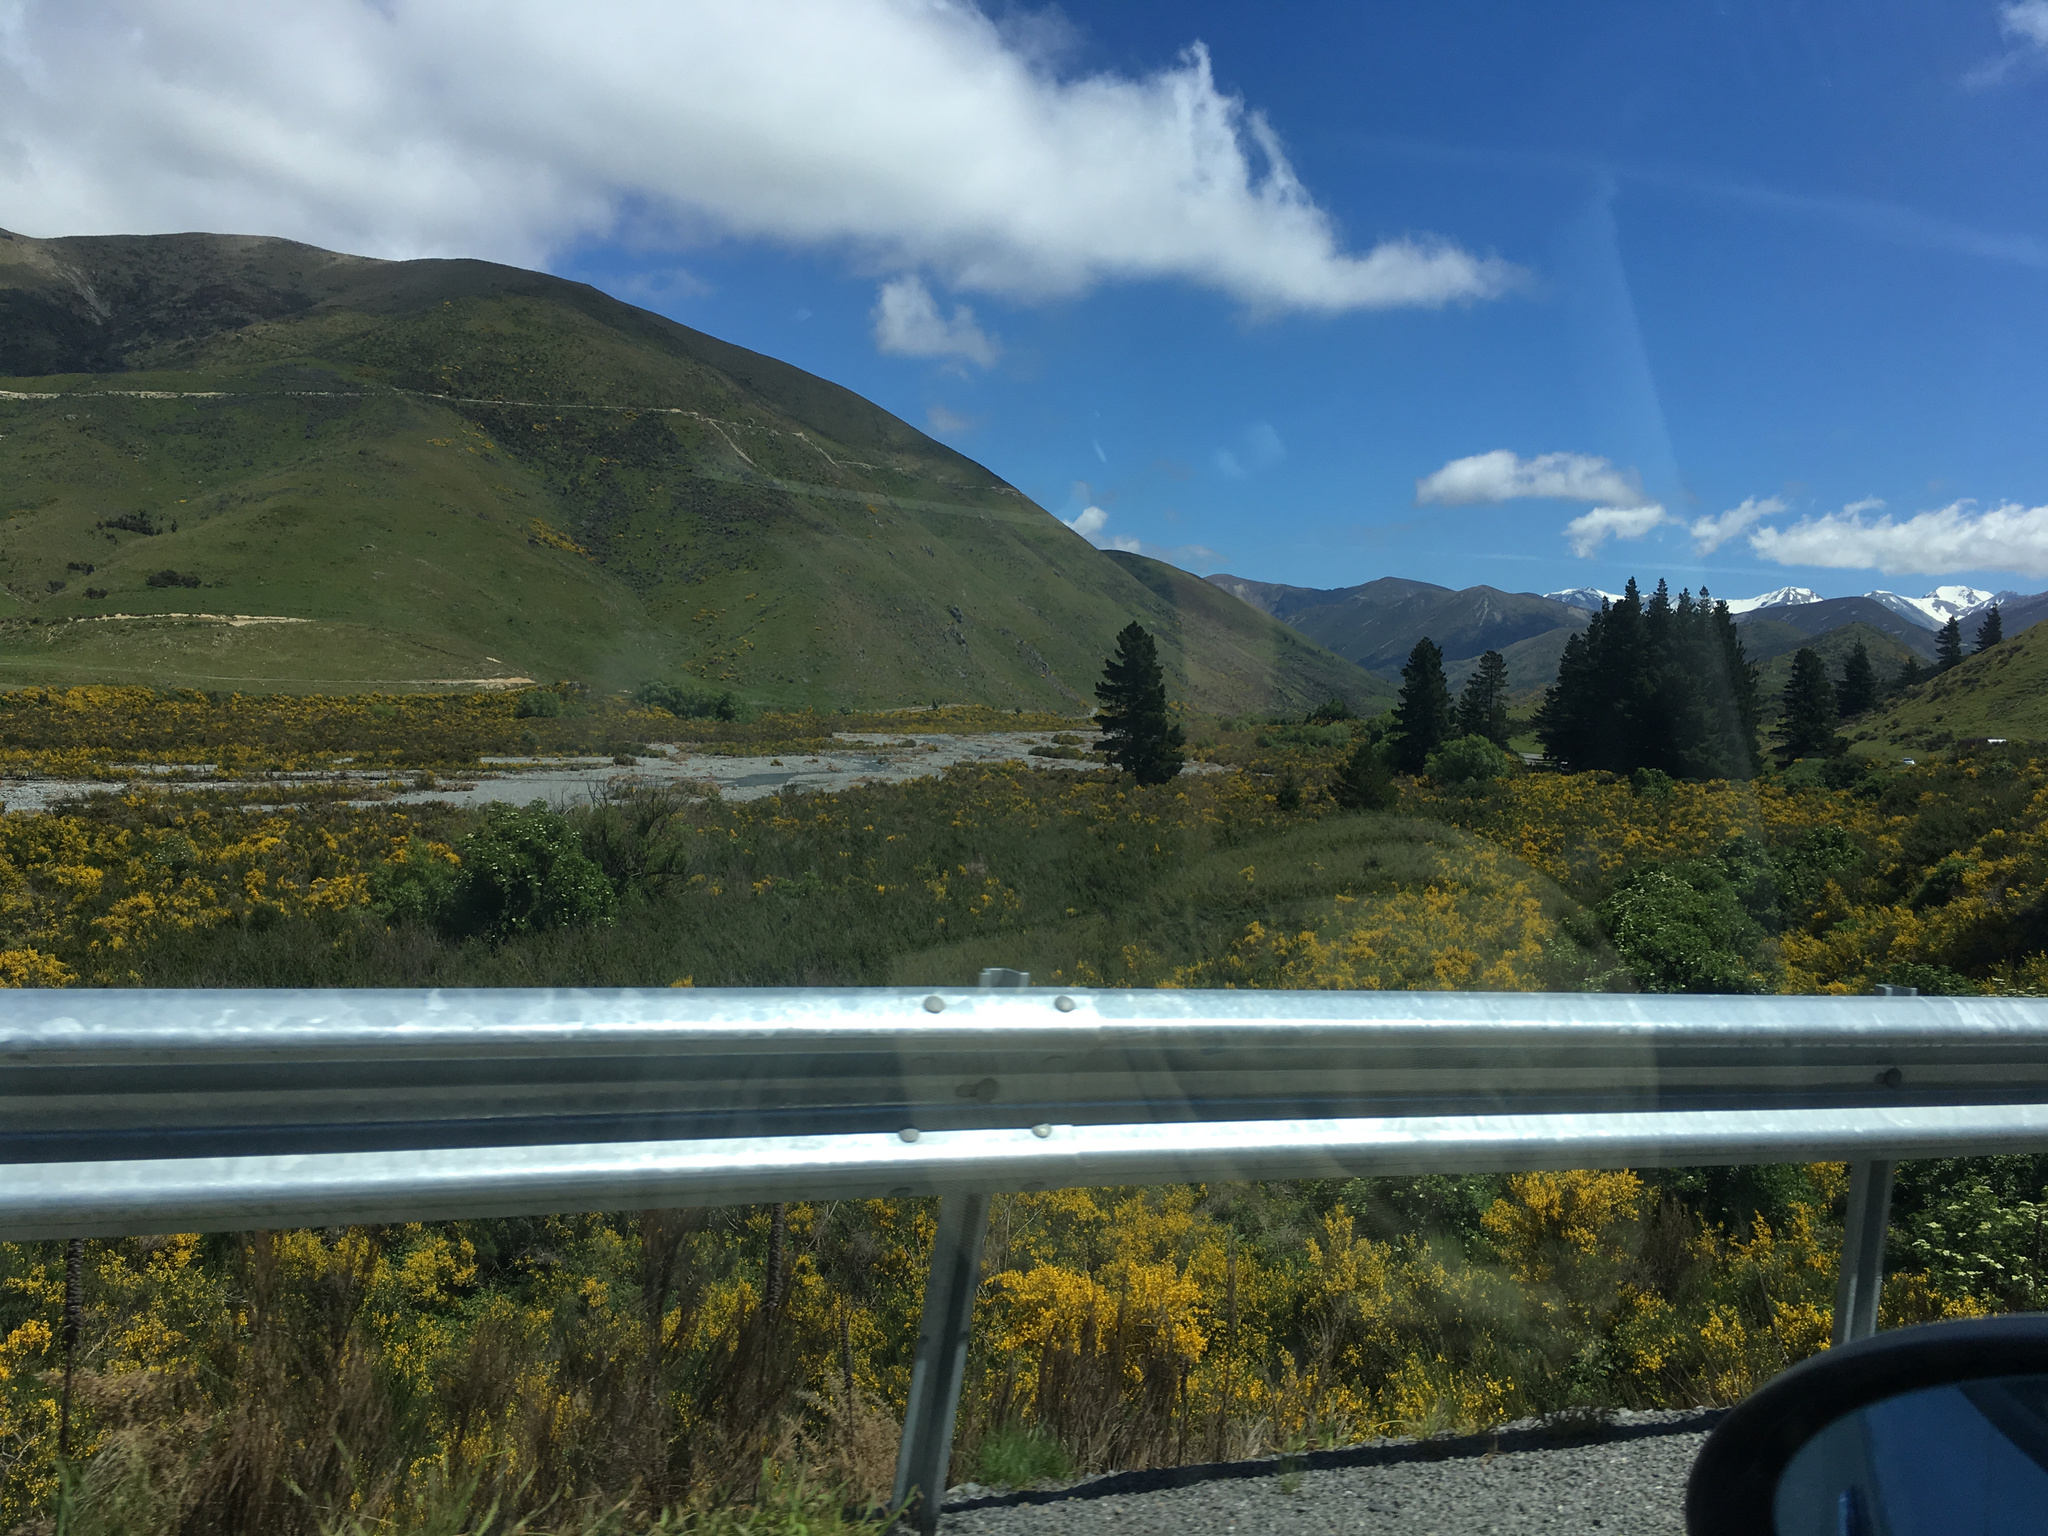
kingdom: Plantae
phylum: Tracheophyta
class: Magnoliopsida
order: Fabales
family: Fabaceae
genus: Cytisus
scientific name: Cytisus scoparius
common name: Scotch broom
